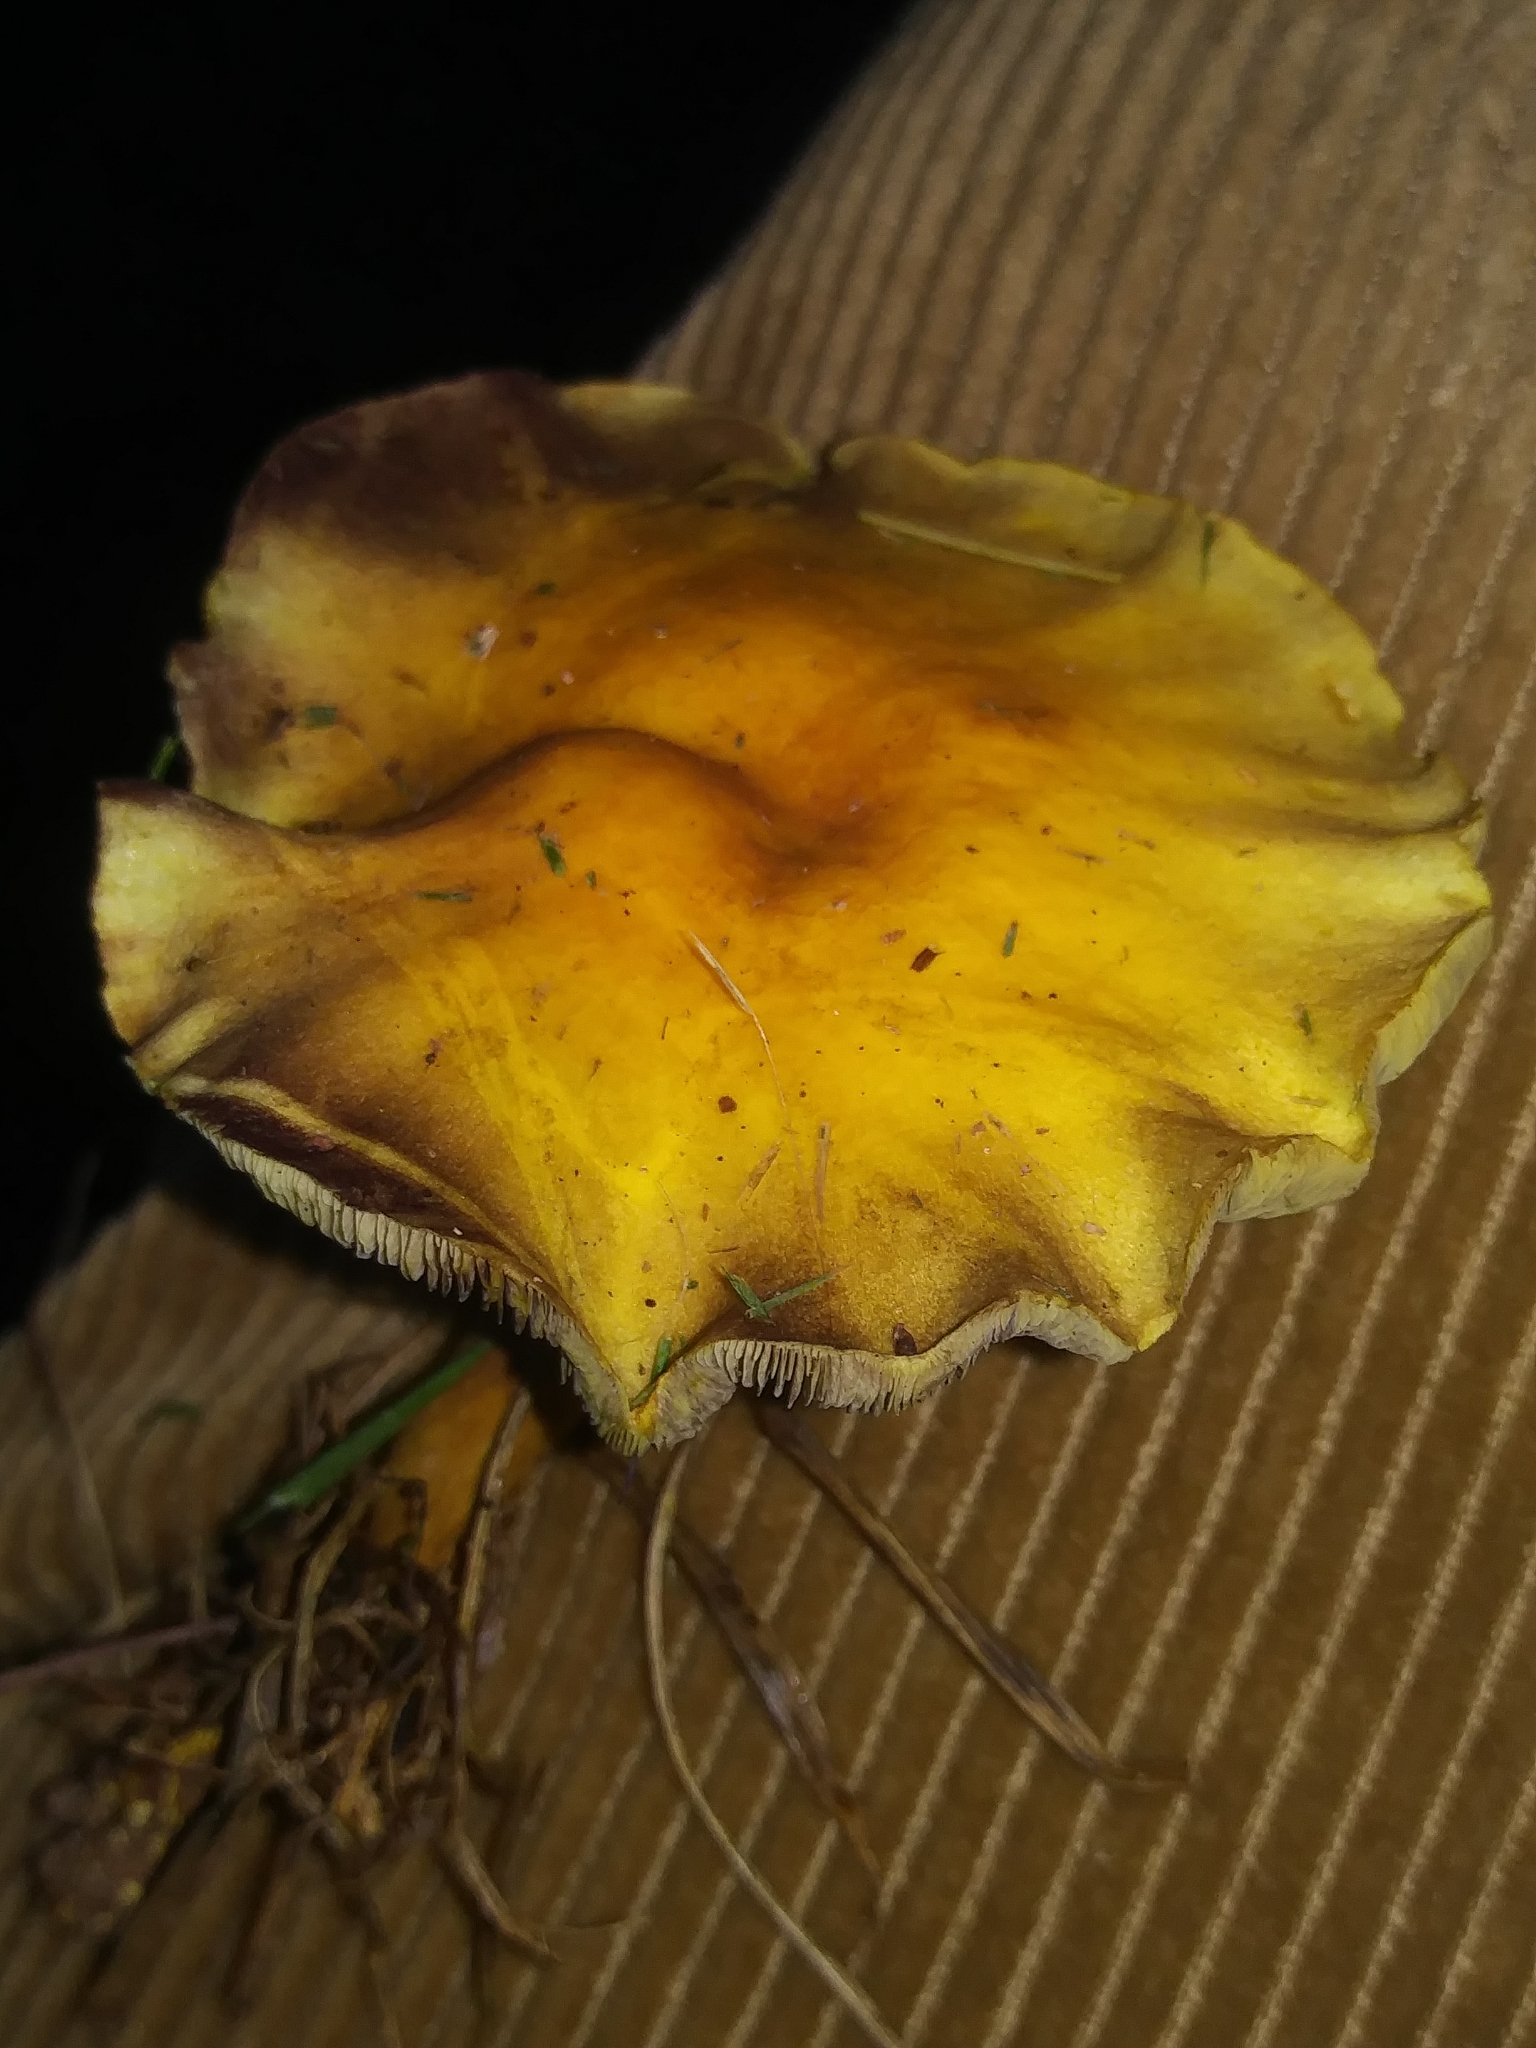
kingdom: Fungi
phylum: Basidiomycota
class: Agaricomycetes
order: Agaricales
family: Strophariaceae
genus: Hypholoma
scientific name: Hypholoma fasciculare
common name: Sulphur tuft
